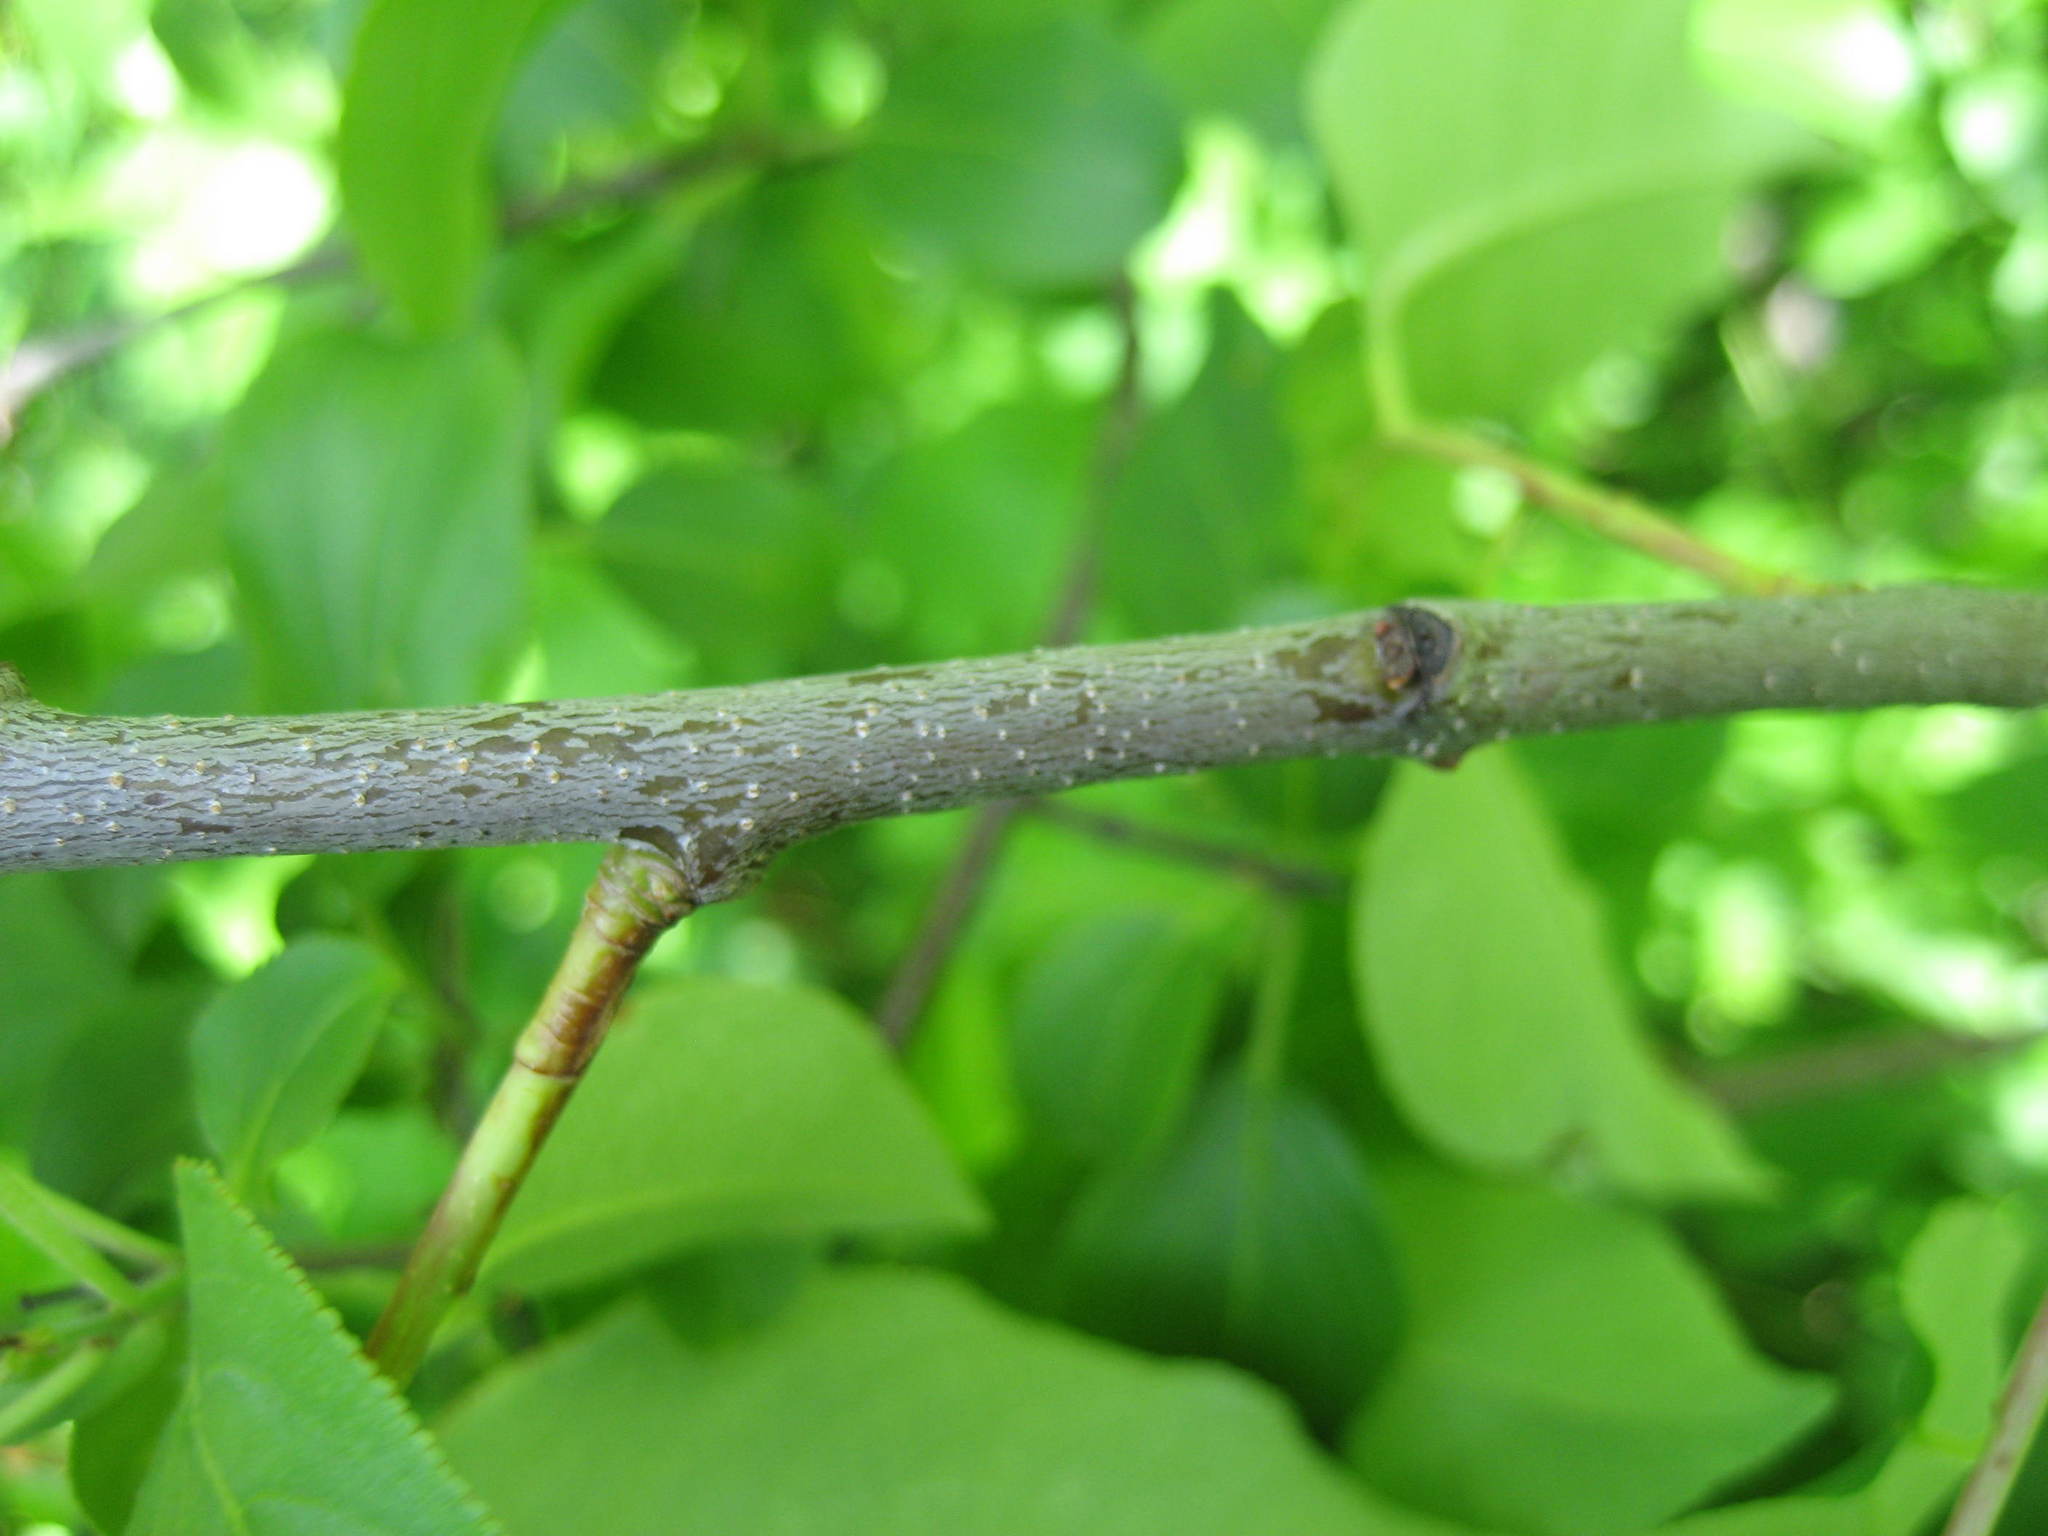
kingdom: Plantae
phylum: Tracheophyta
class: Magnoliopsida
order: Rosales
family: Rosaceae
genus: Prunus
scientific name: Prunus serotina
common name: Black cherry
